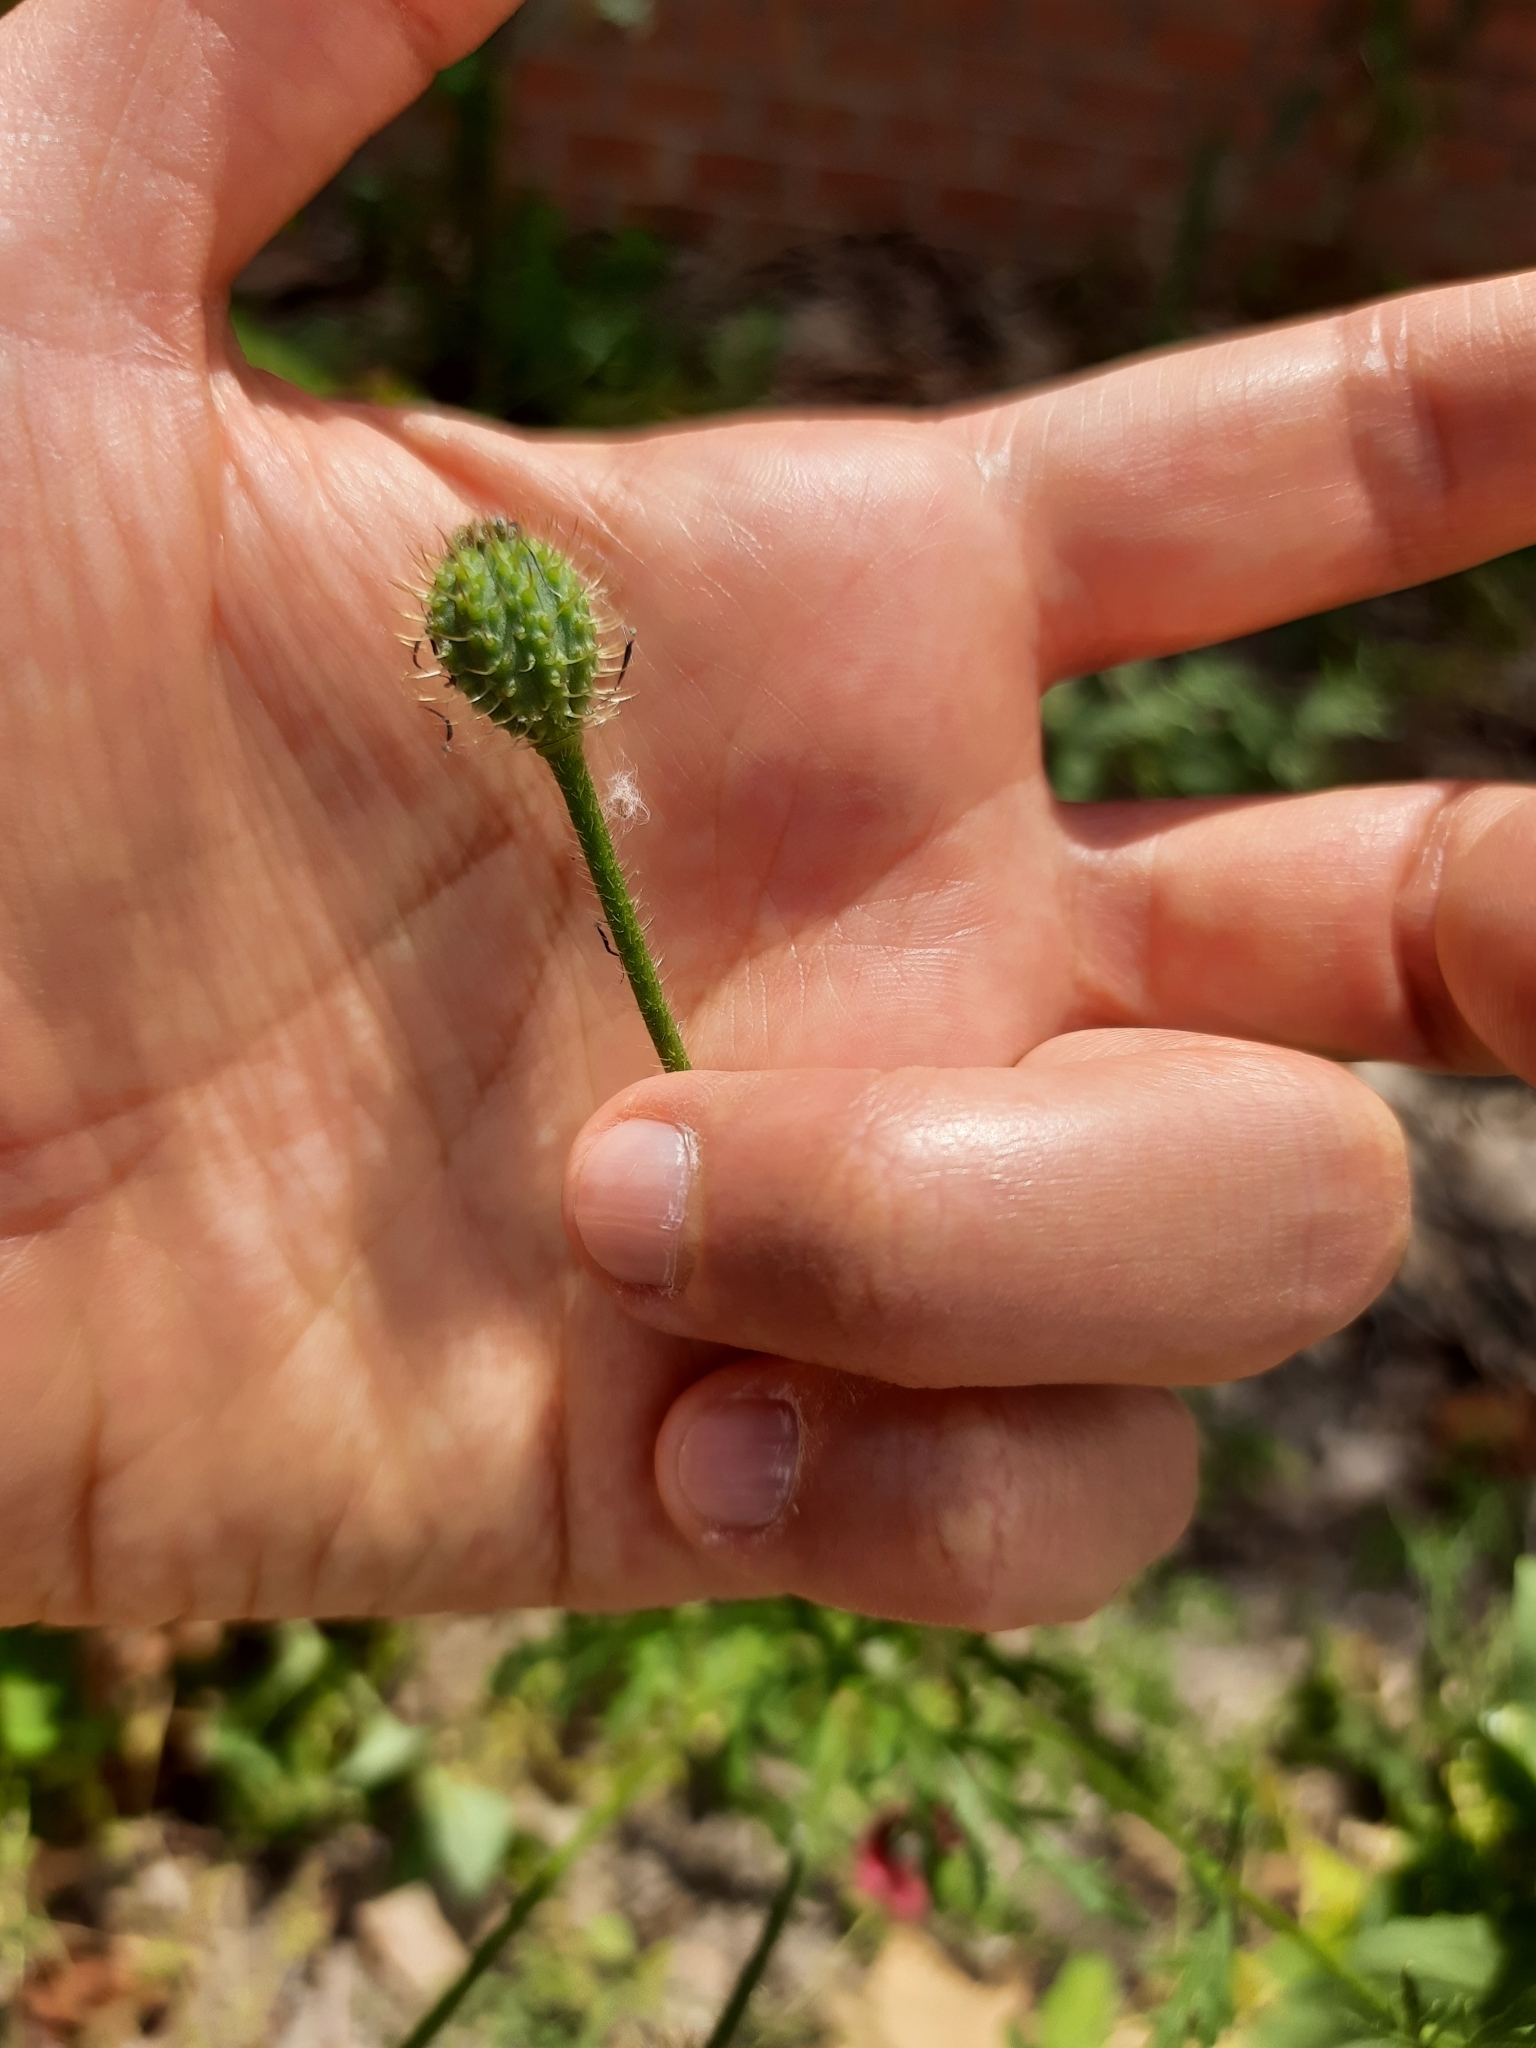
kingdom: Plantae
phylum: Tracheophyta
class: Magnoliopsida
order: Ranunculales
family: Papaveraceae
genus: Roemeria
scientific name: Roemeria hispida
